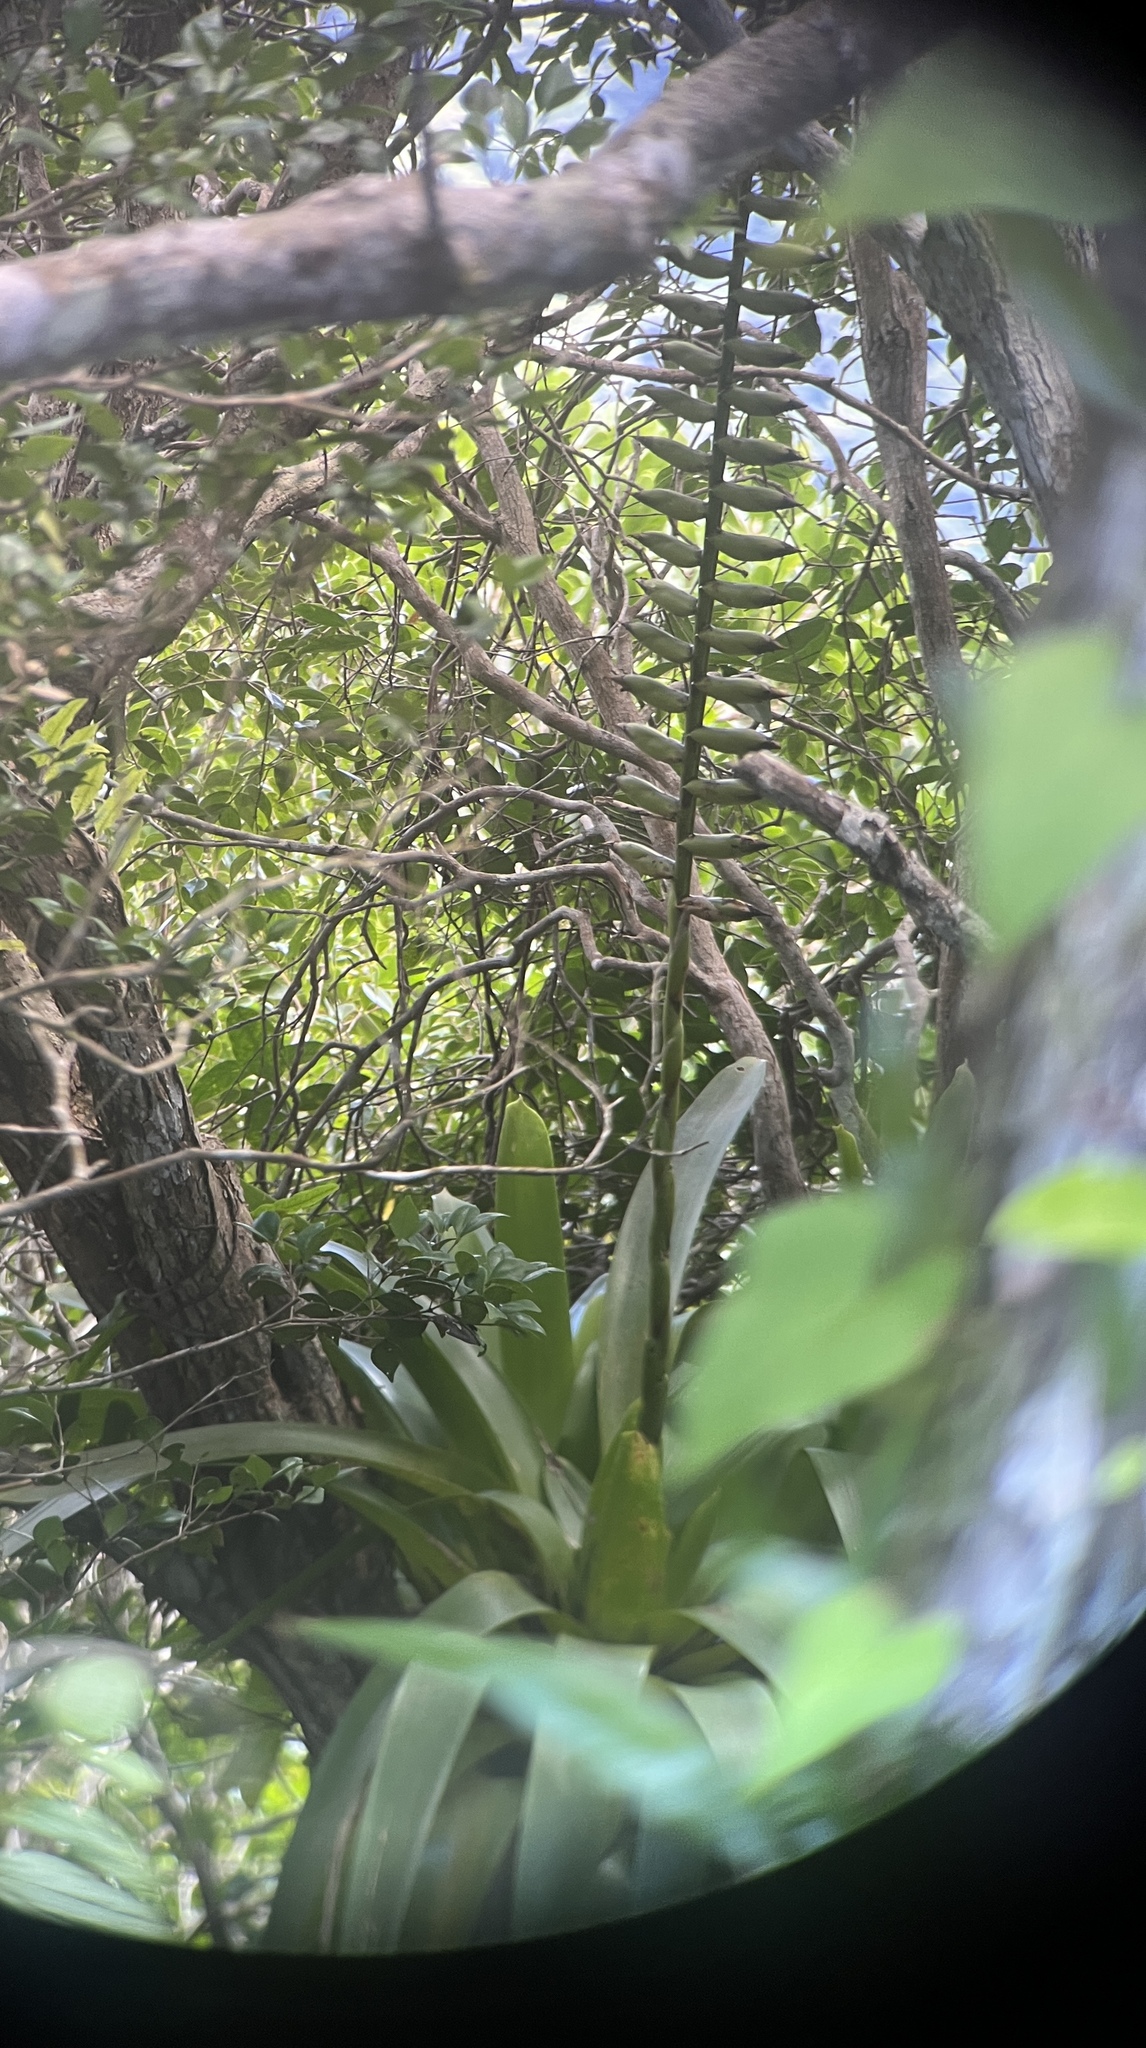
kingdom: Plantae
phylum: Tracheophyta
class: Liliopsida
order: Poales
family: Bromeliaceae
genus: Vriesea
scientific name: Vriesea macrostachya
